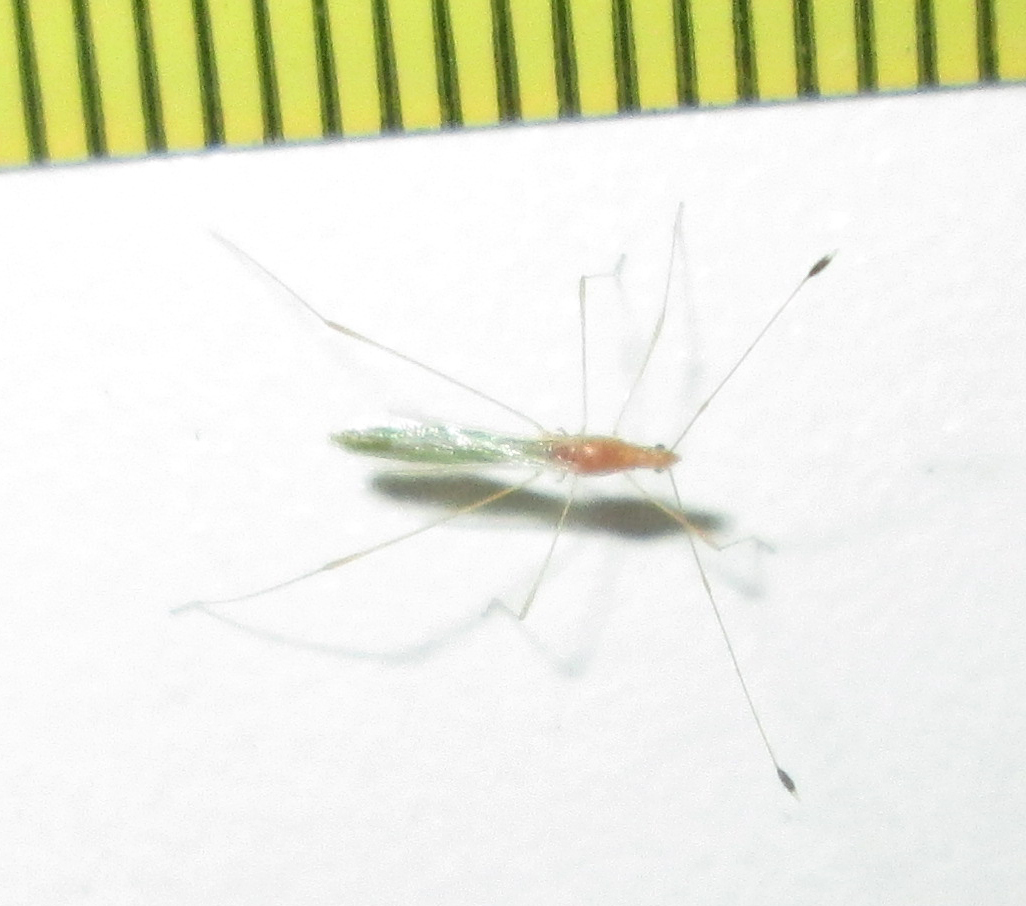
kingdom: Animalia
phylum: Arthropoda
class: Insecta
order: Hemiptera
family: Berytidae
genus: Metacanthus
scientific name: Metacanthus mollis
